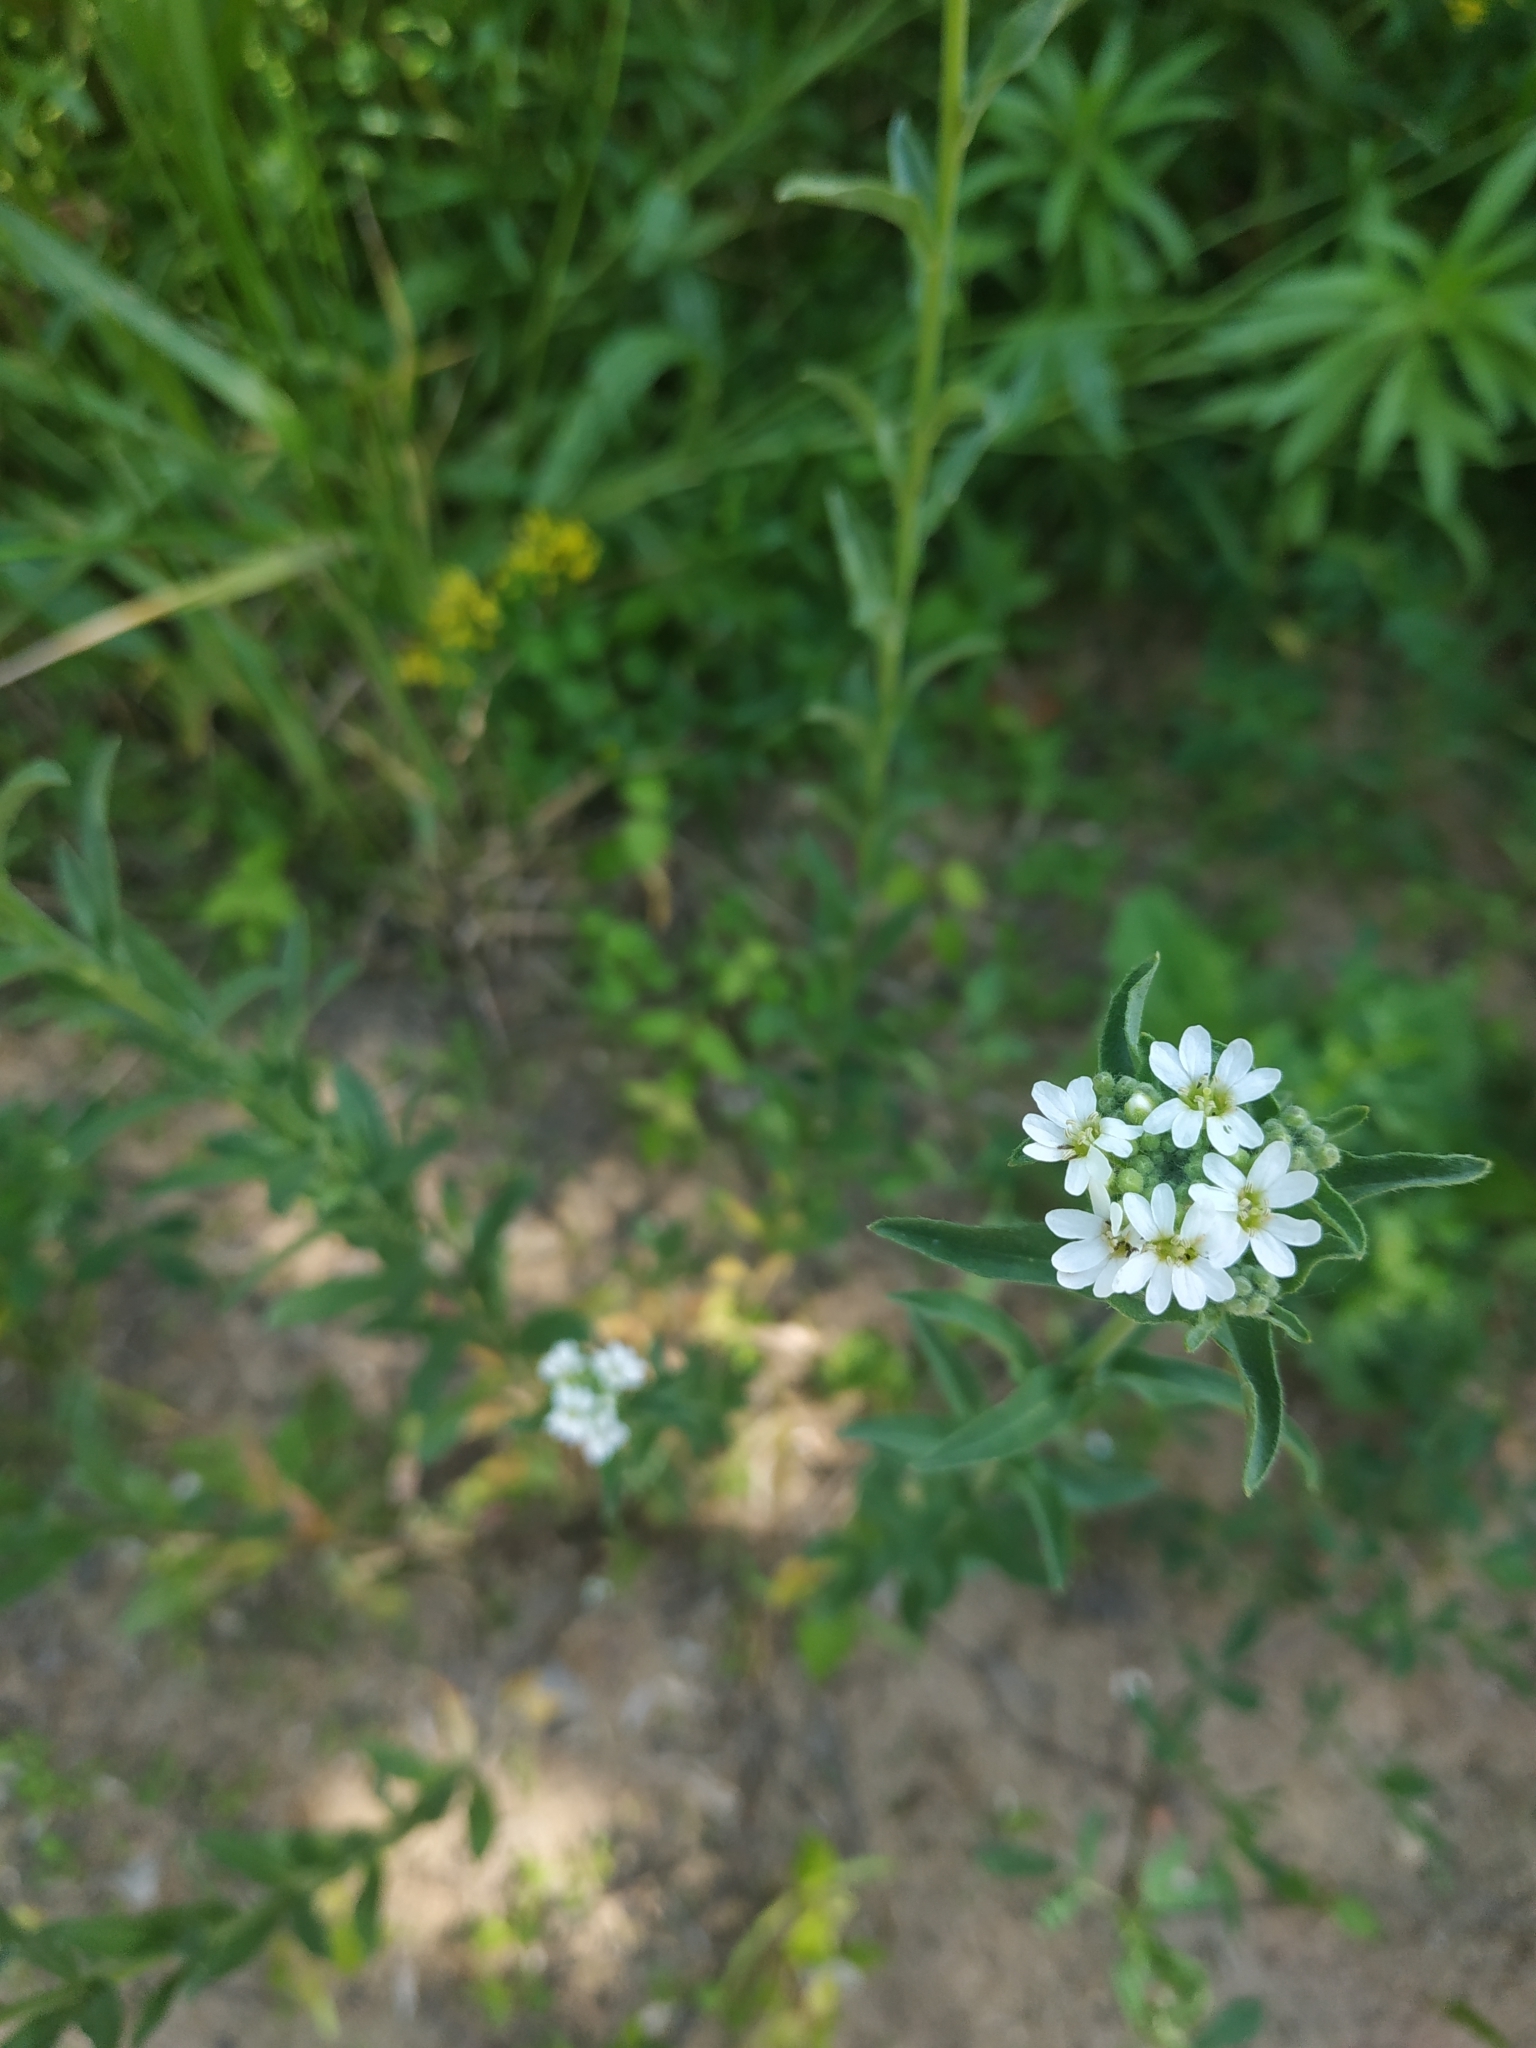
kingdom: Plantae
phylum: Tracheophyta
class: Magnoliopsida
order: Brassicales
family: Brassicaceae
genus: Berteroa
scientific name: Berteroa incana
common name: Hoary alison
